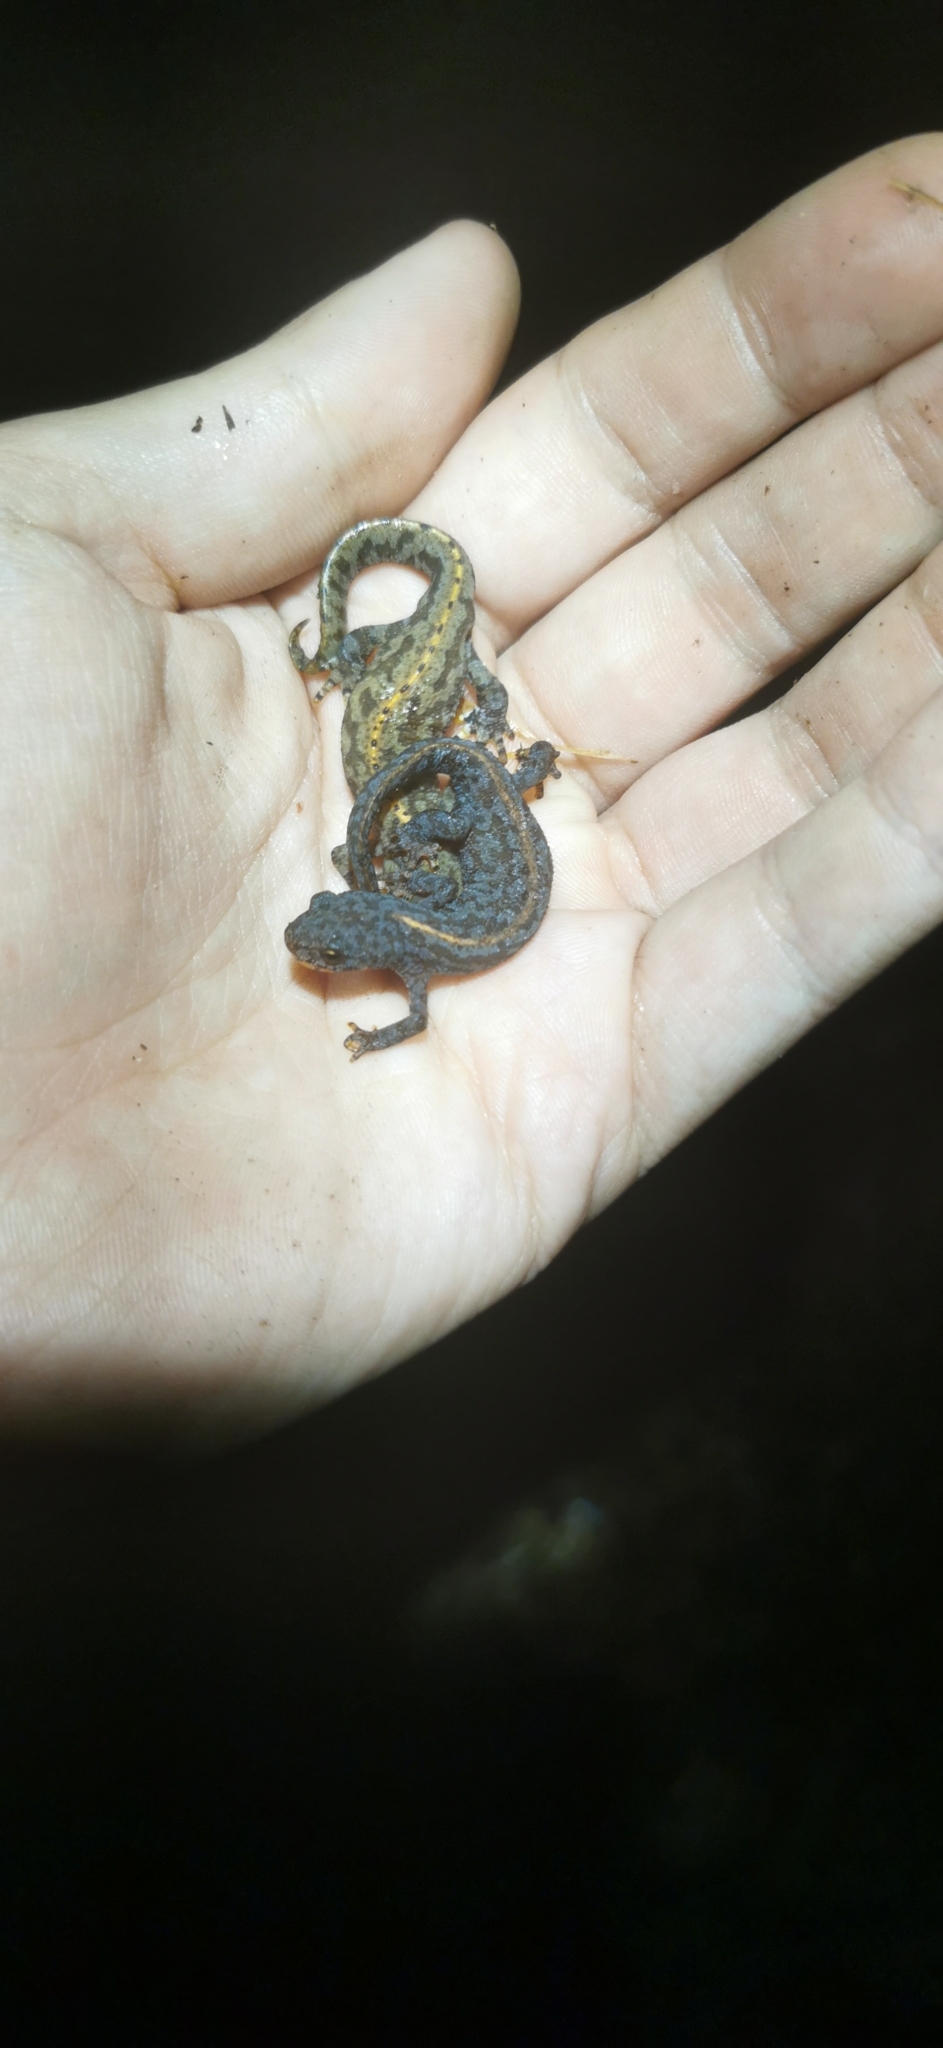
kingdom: Animalia
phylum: Chordata
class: Amphibia
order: Caudata
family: Salamandridae
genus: Ichthyosaura
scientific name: Ichthyosaura alpestris
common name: Alpine newt
